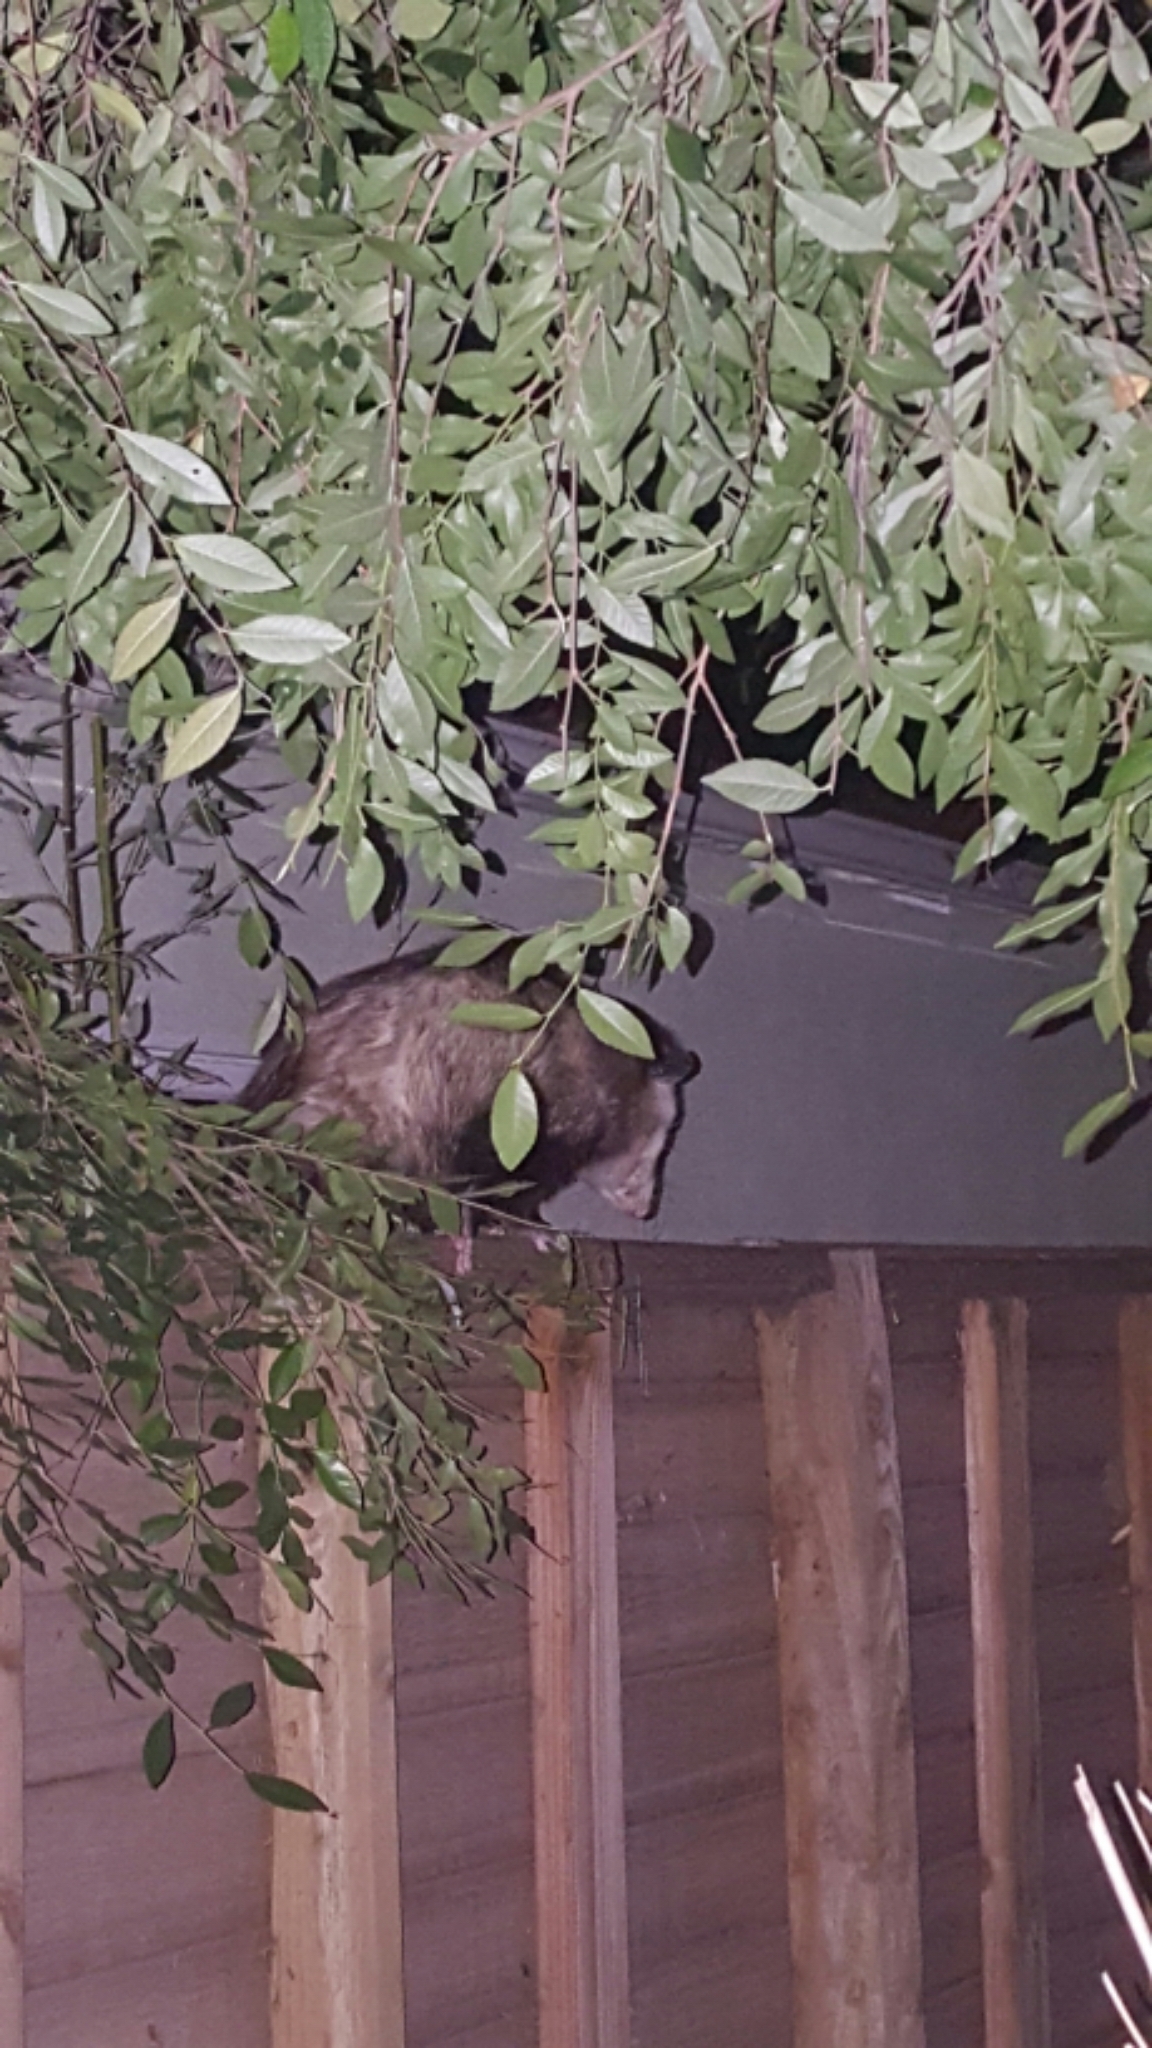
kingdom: Animalia
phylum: Chordata
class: Mammalia
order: Didelphimorphia
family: Didelphidae
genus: Didelphis
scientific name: Didelphis virginiana
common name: Virginia opossum
